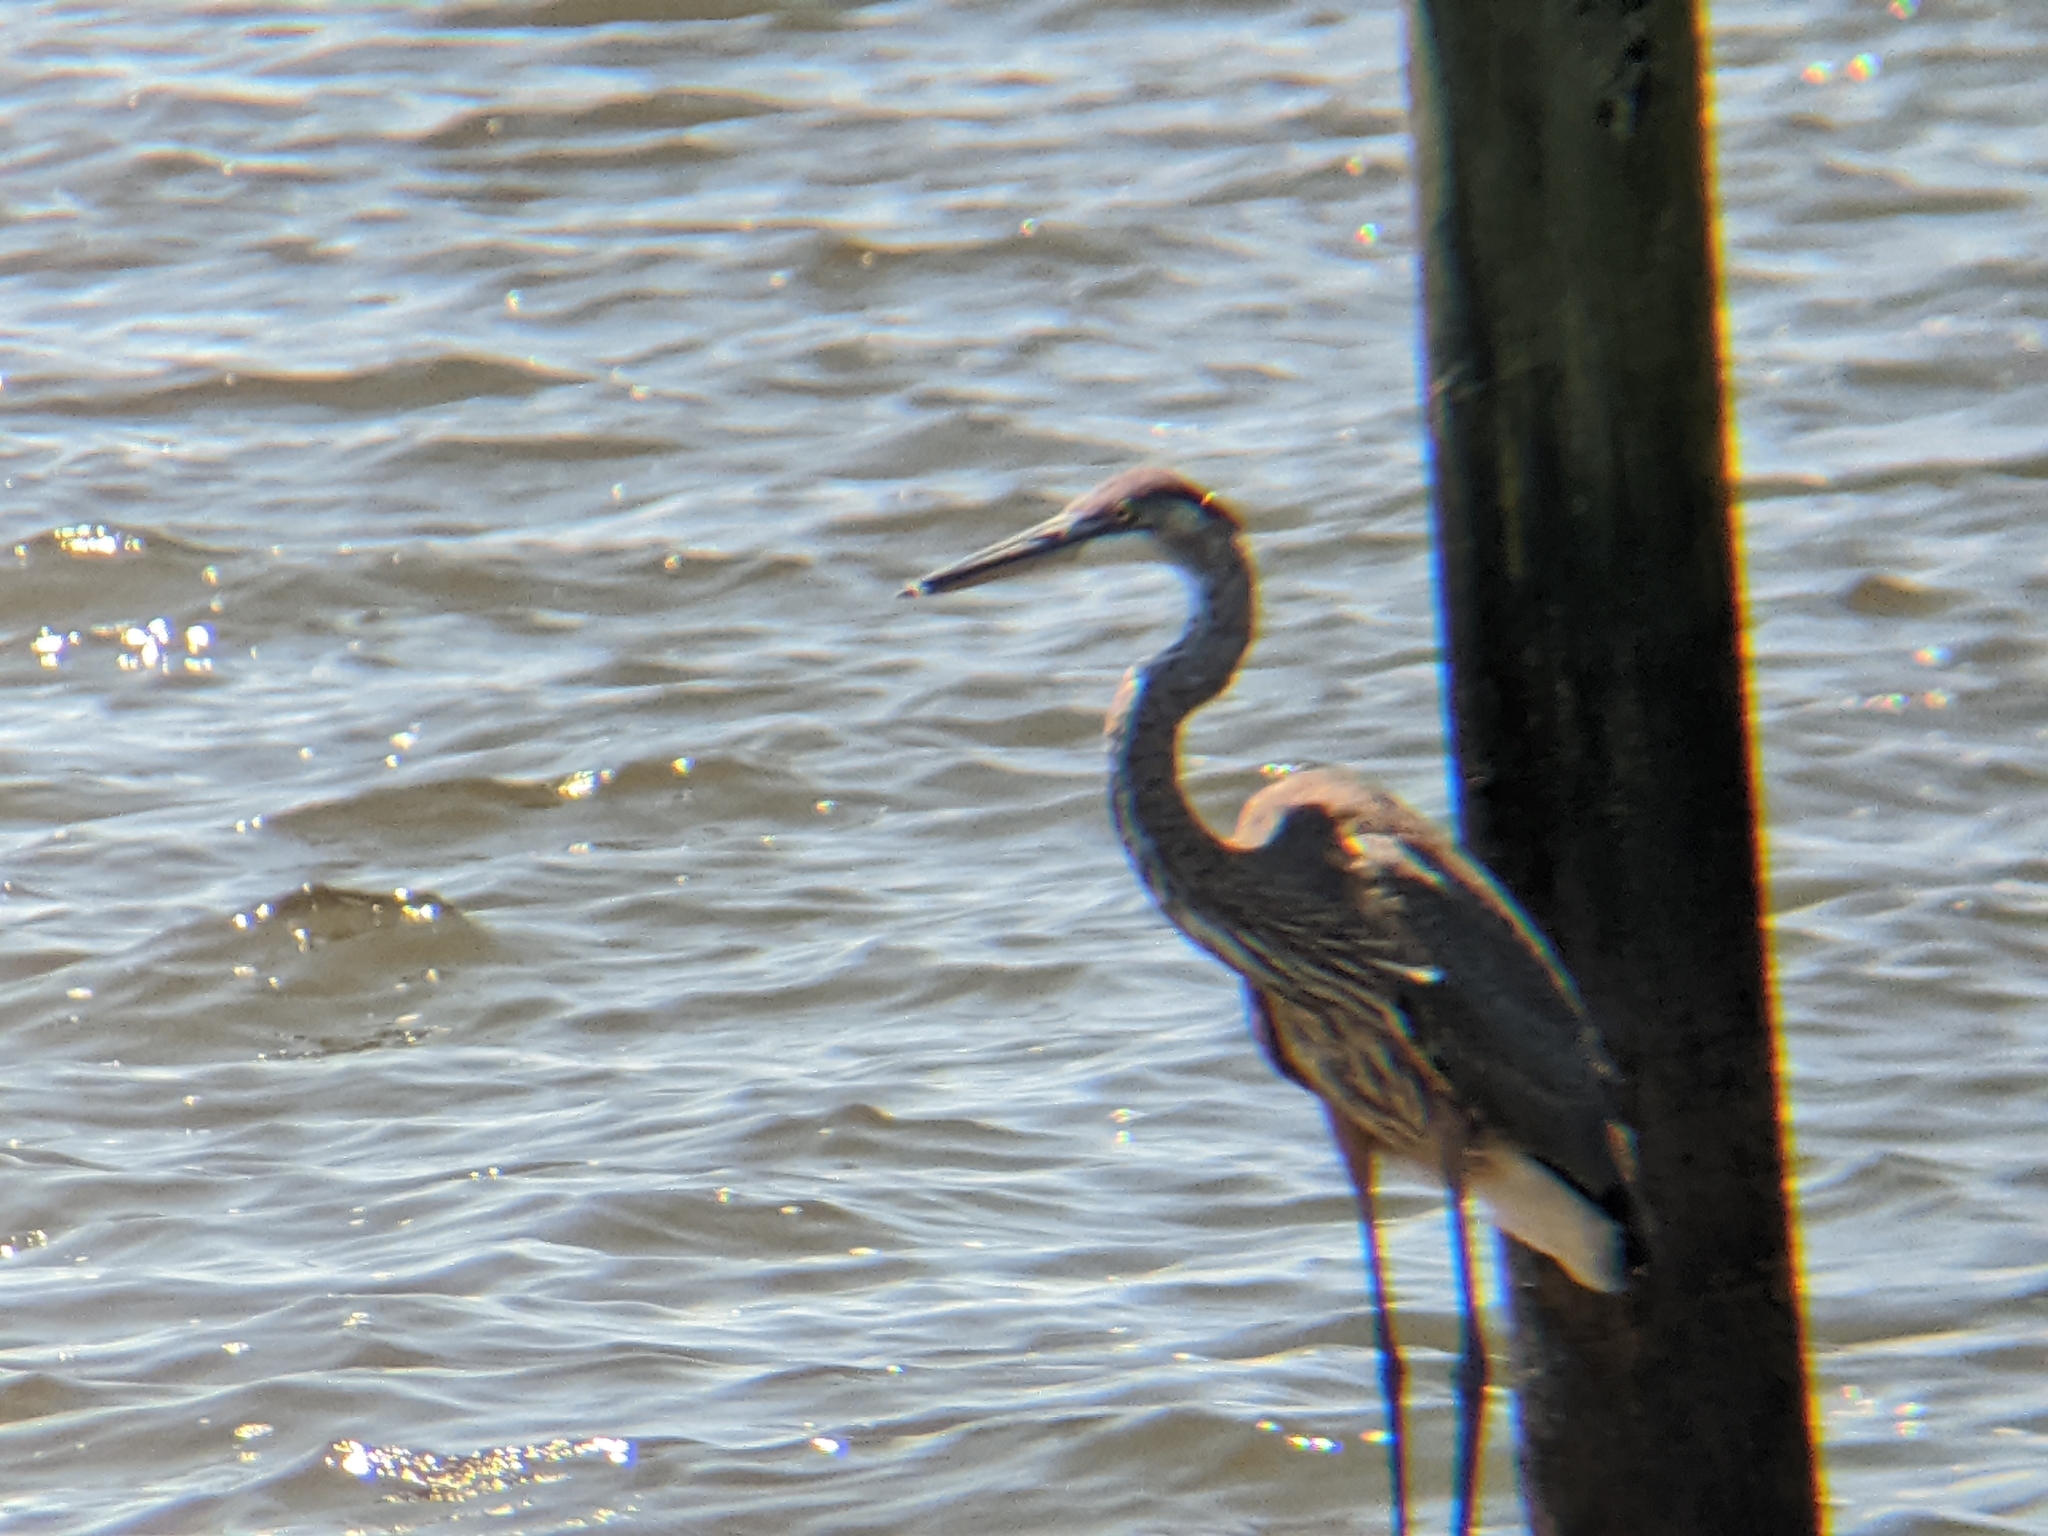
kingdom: Animalia
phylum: Chordata
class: Aves
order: Pelecaniformes
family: Ardeidae
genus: Ardea
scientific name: Ardea herodias
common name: Great blue heron
